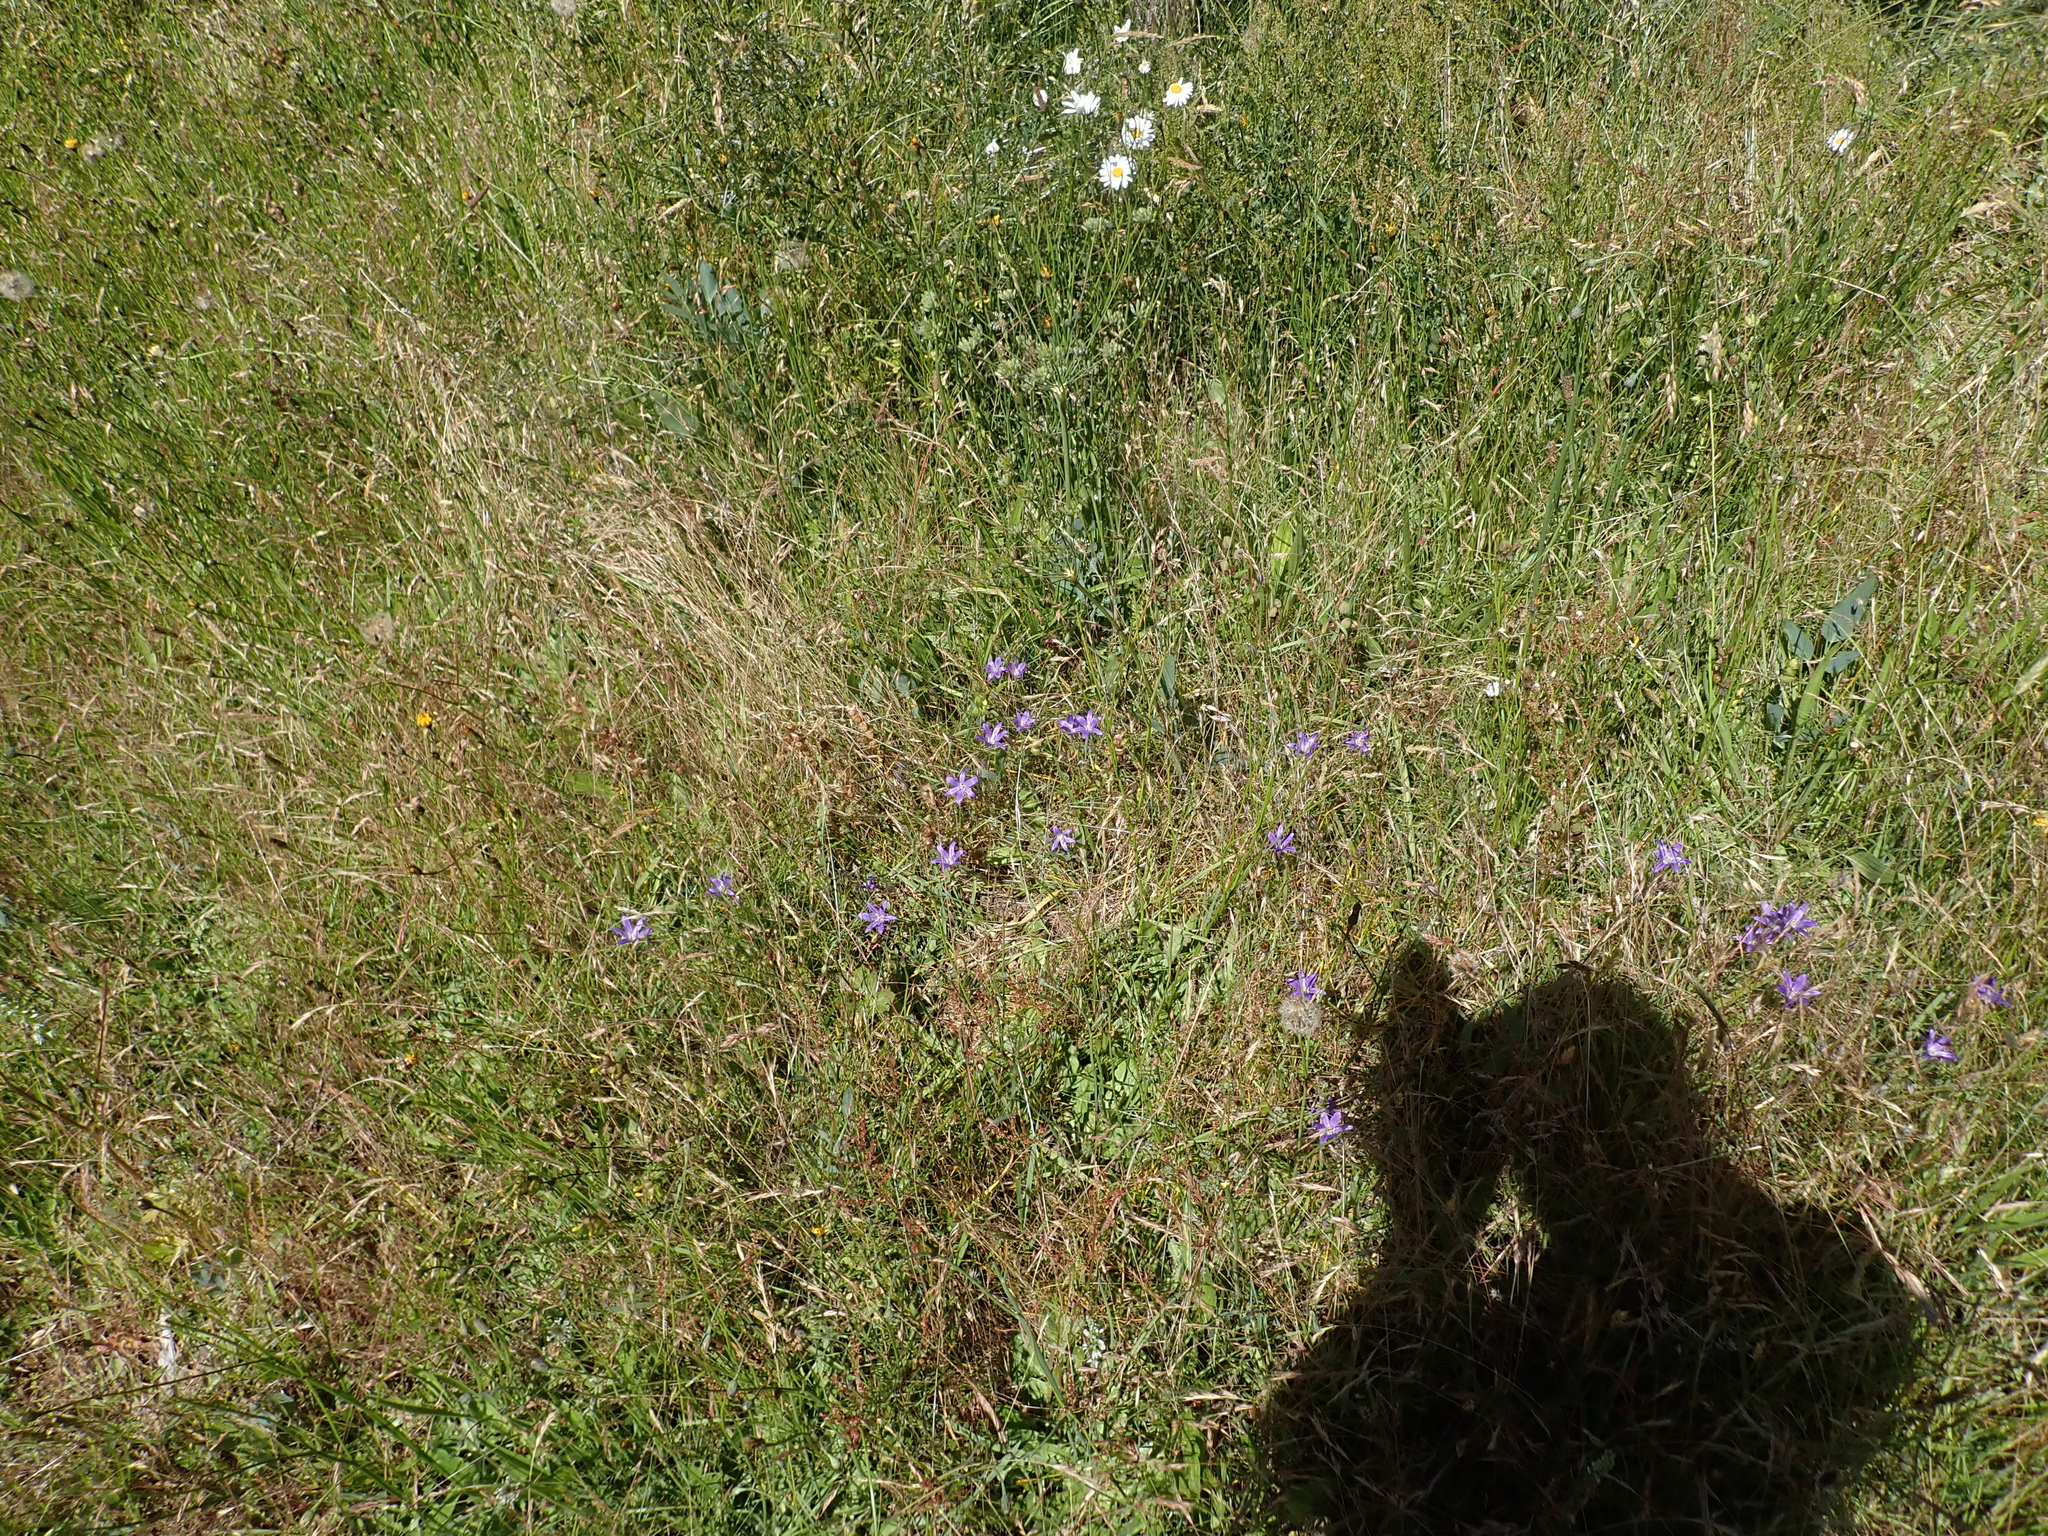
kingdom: Plantae
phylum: Tracheophyta
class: Liliopsida
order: Asparagales
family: Asparagaceae
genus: Brodiaea
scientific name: Brodiaea coronaria
